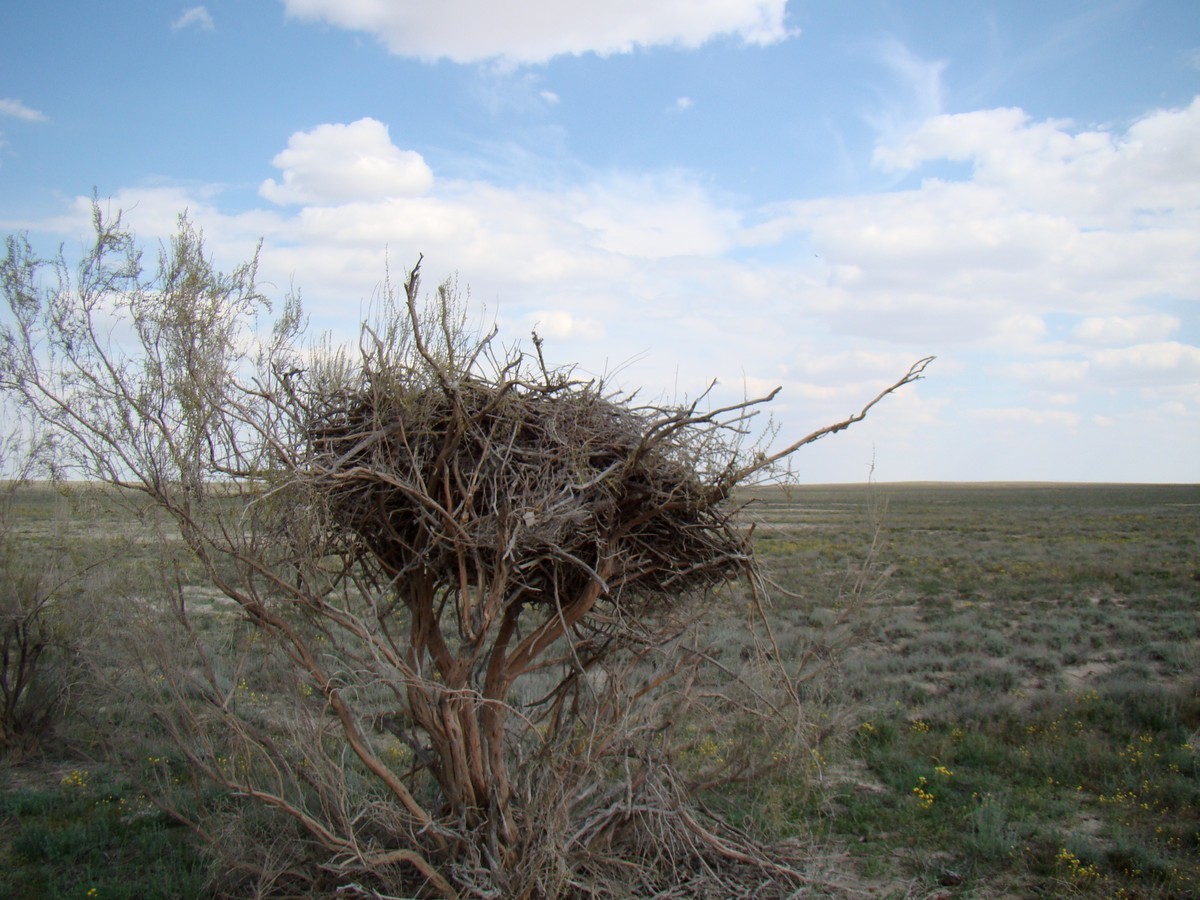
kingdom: Animalia
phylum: Chordata
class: Aves
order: Accipitriformes
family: Accipitridae
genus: Aquila
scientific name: Aquila nipalensis
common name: Steppe eagle
